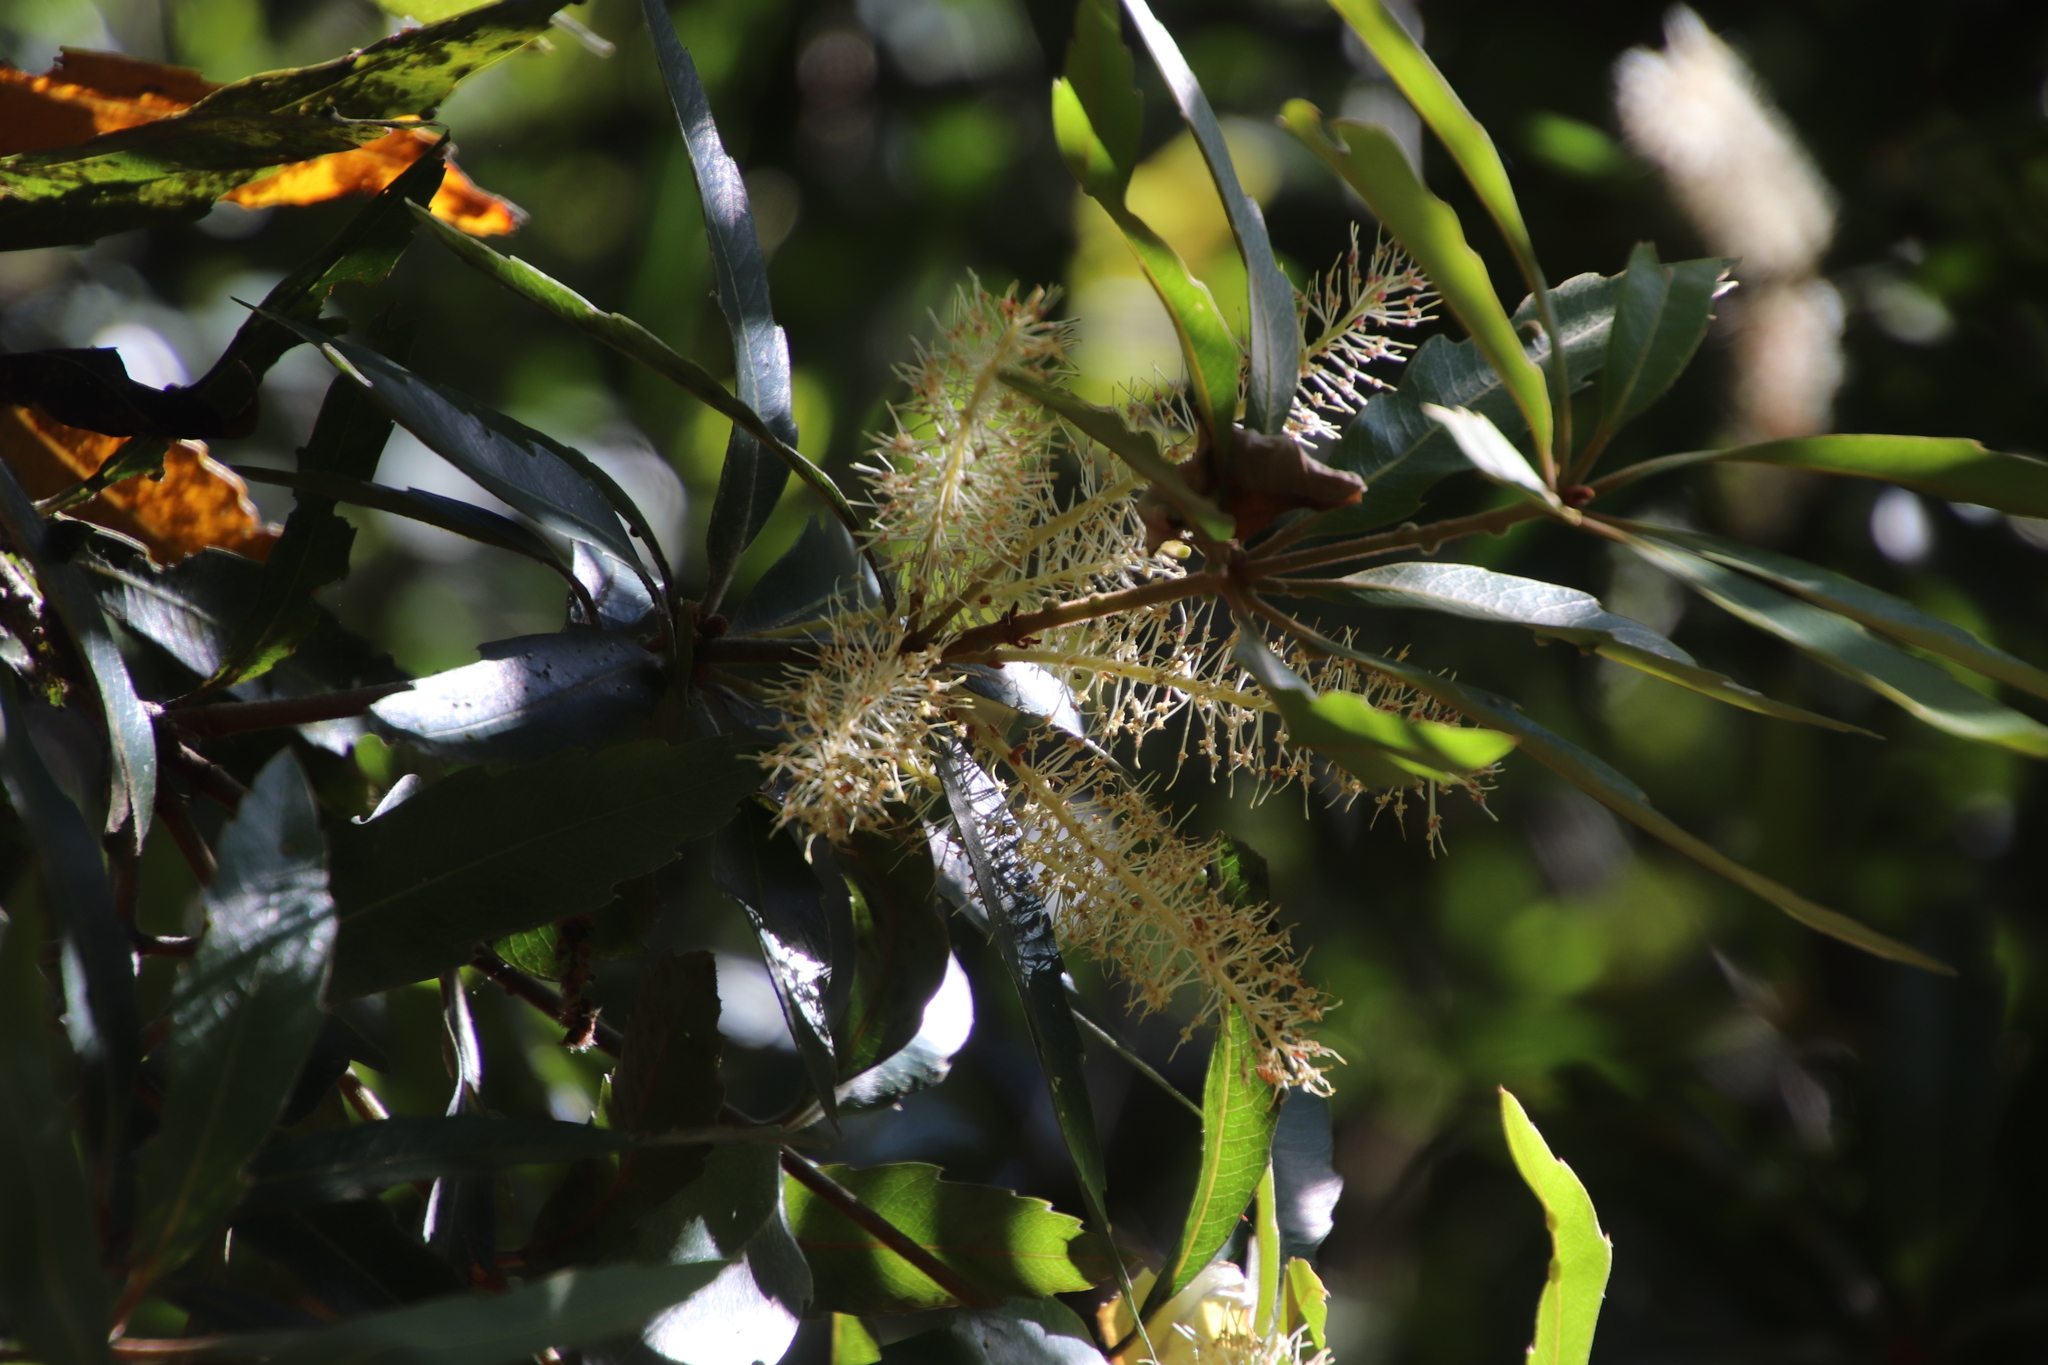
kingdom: Plantae
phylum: Tracheophyta
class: Magnoliopsida
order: Proteales
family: Proteaceae
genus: Brabejum
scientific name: Brabejum stellatifolium
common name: Wild almond
